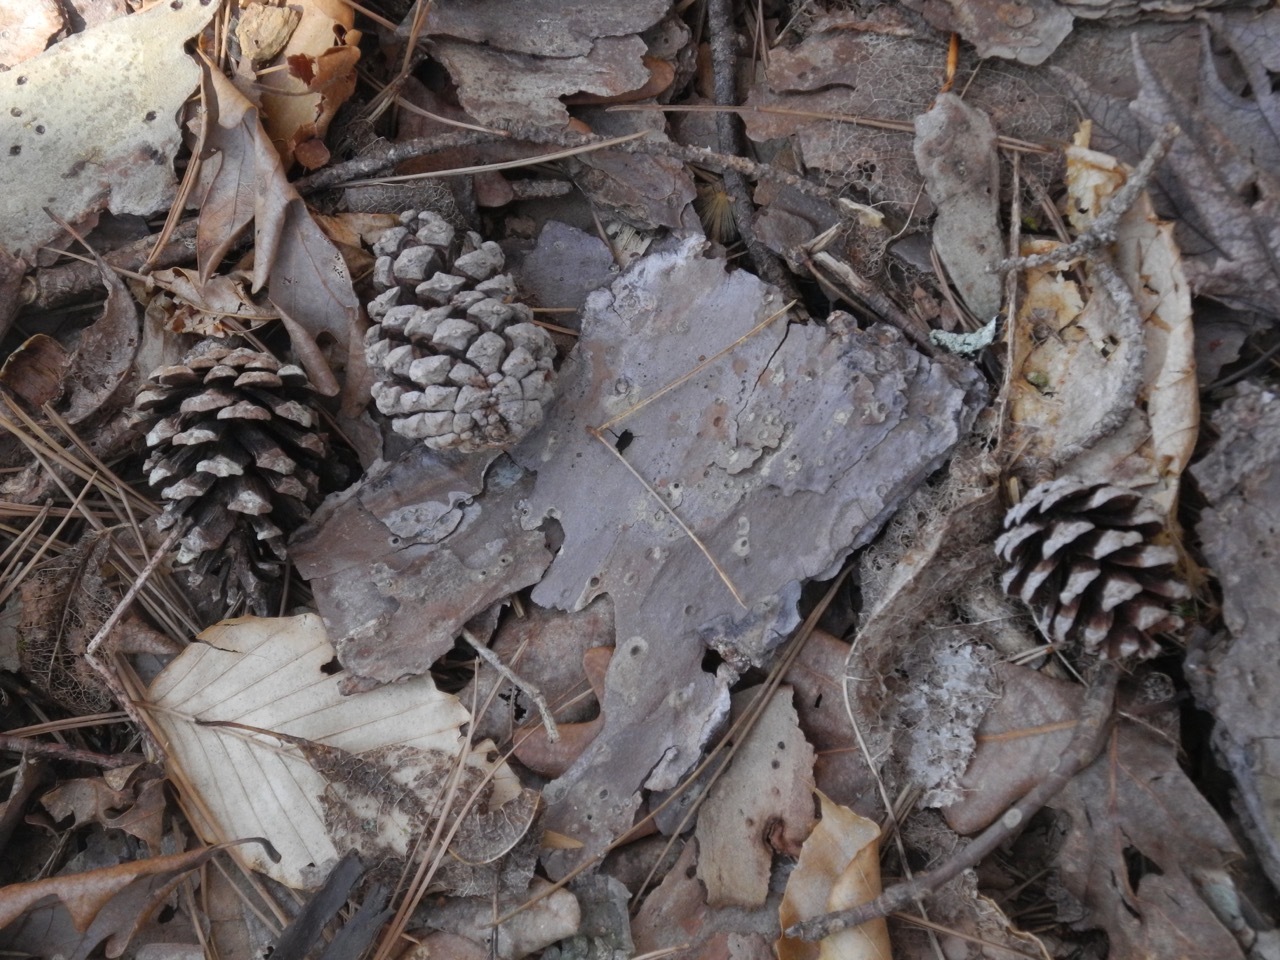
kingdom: Plantae
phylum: Tracheophyta
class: Pinopsida
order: Pinales
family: Pinaceae
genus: Pinus
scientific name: Pinus echinata
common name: Shortleaf pine
